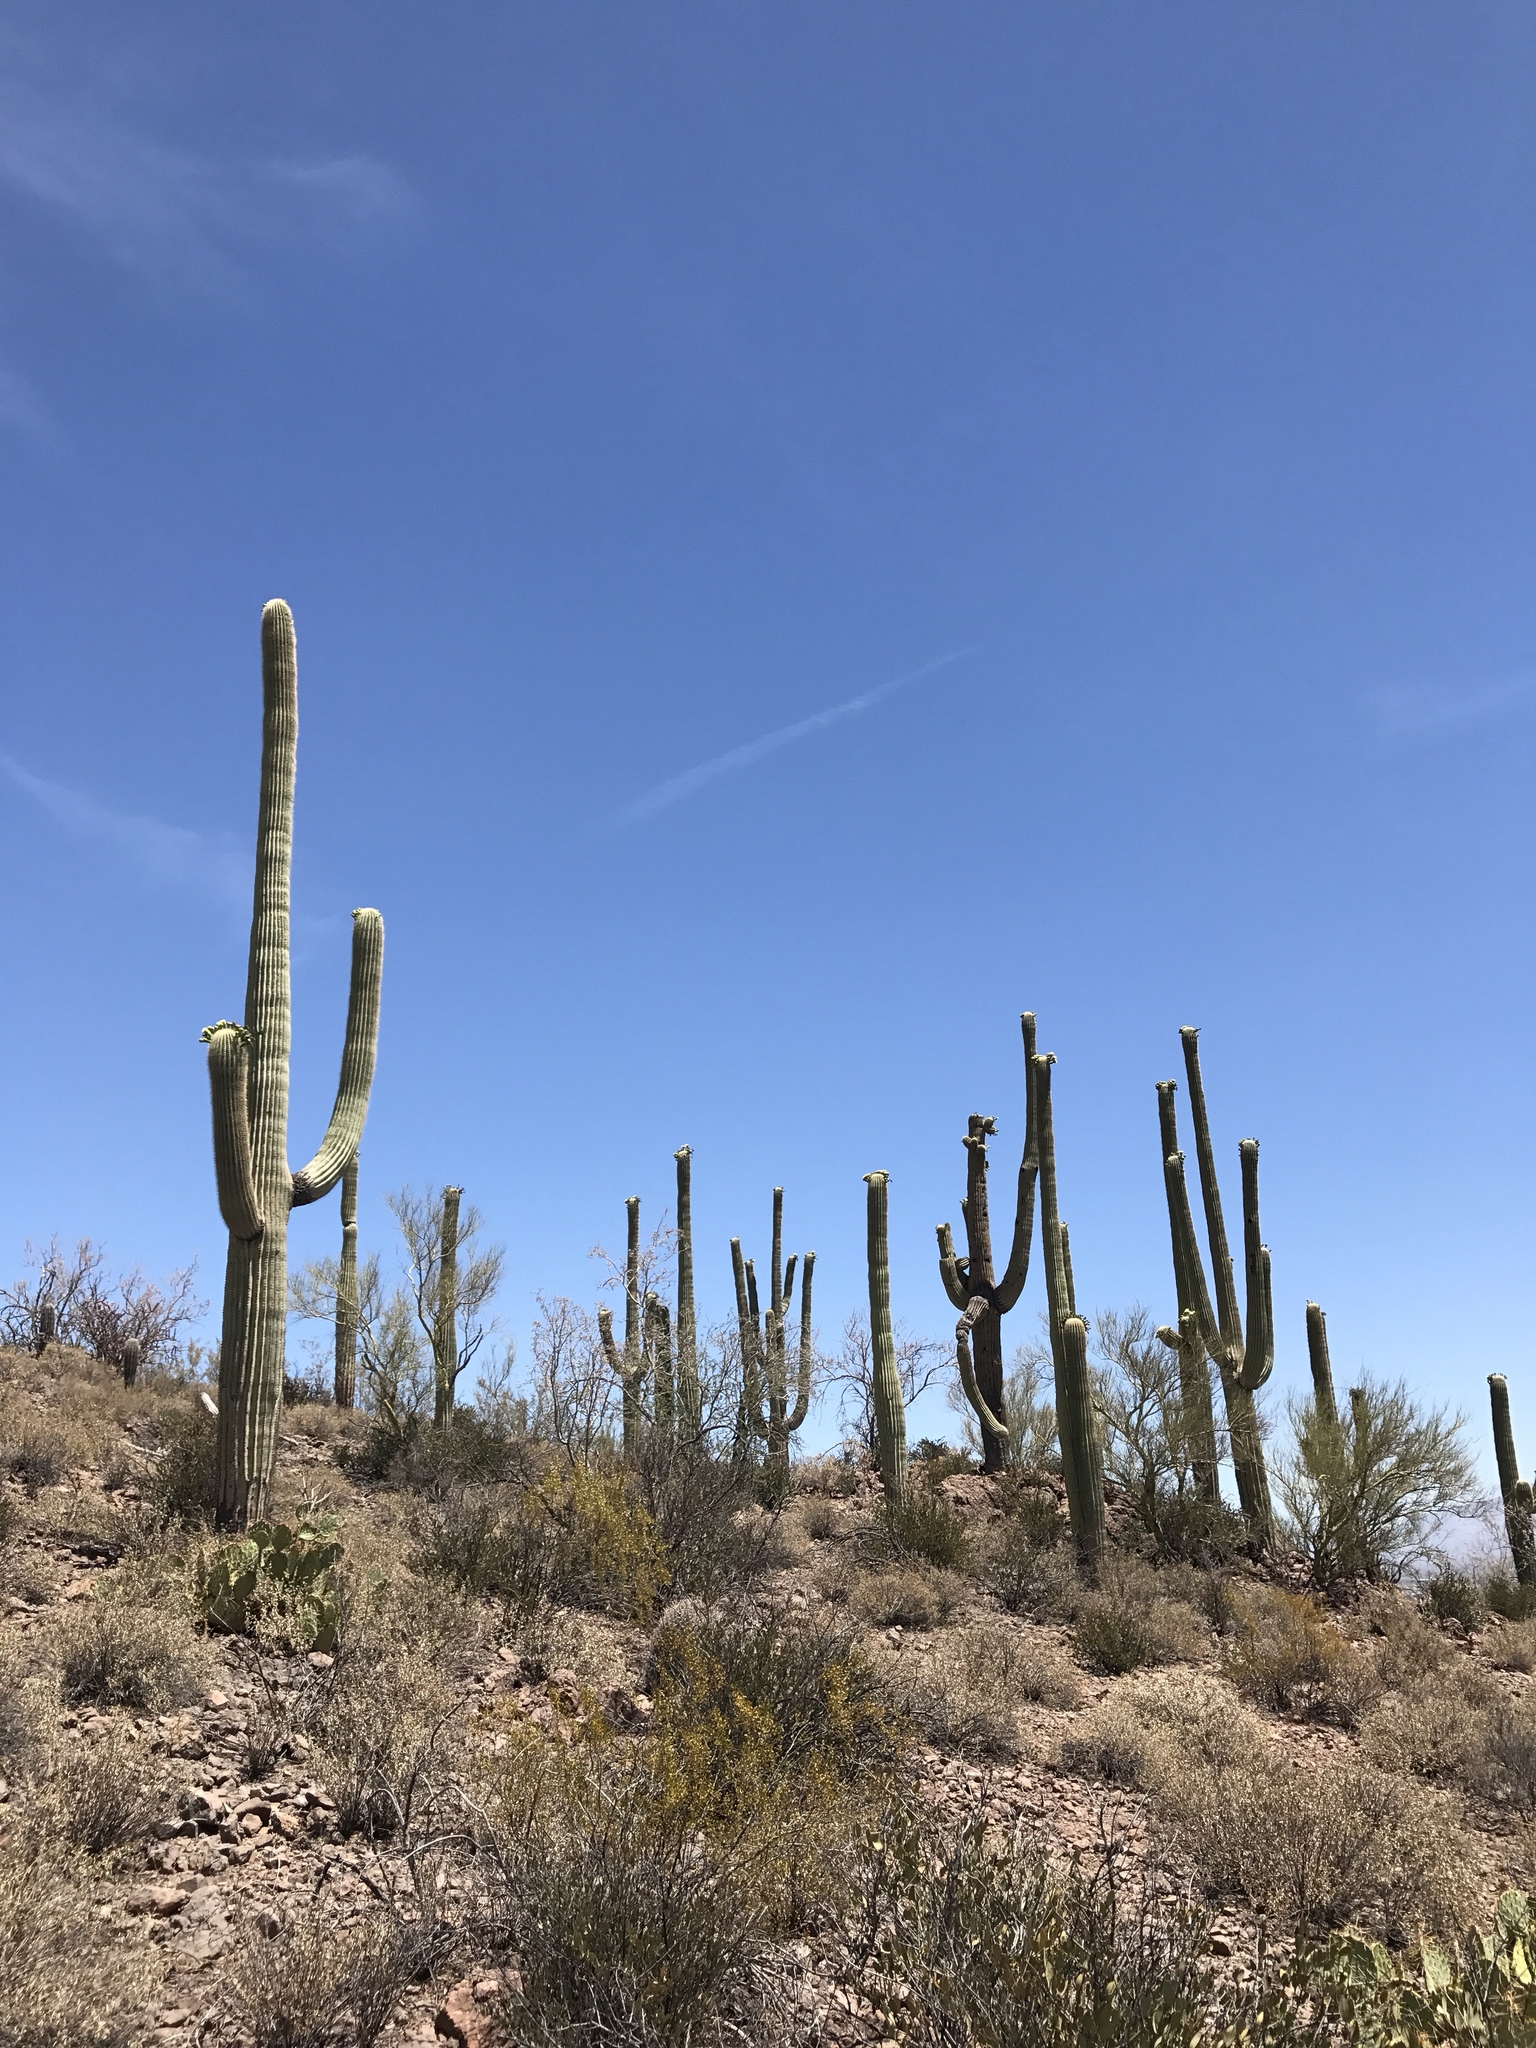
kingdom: Plantae
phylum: Tracheophyta
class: Magnoliopsida
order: Caryophyllales
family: Cactaceae
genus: Carnegiea
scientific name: Carnegiea gigantea
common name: Saguaro
